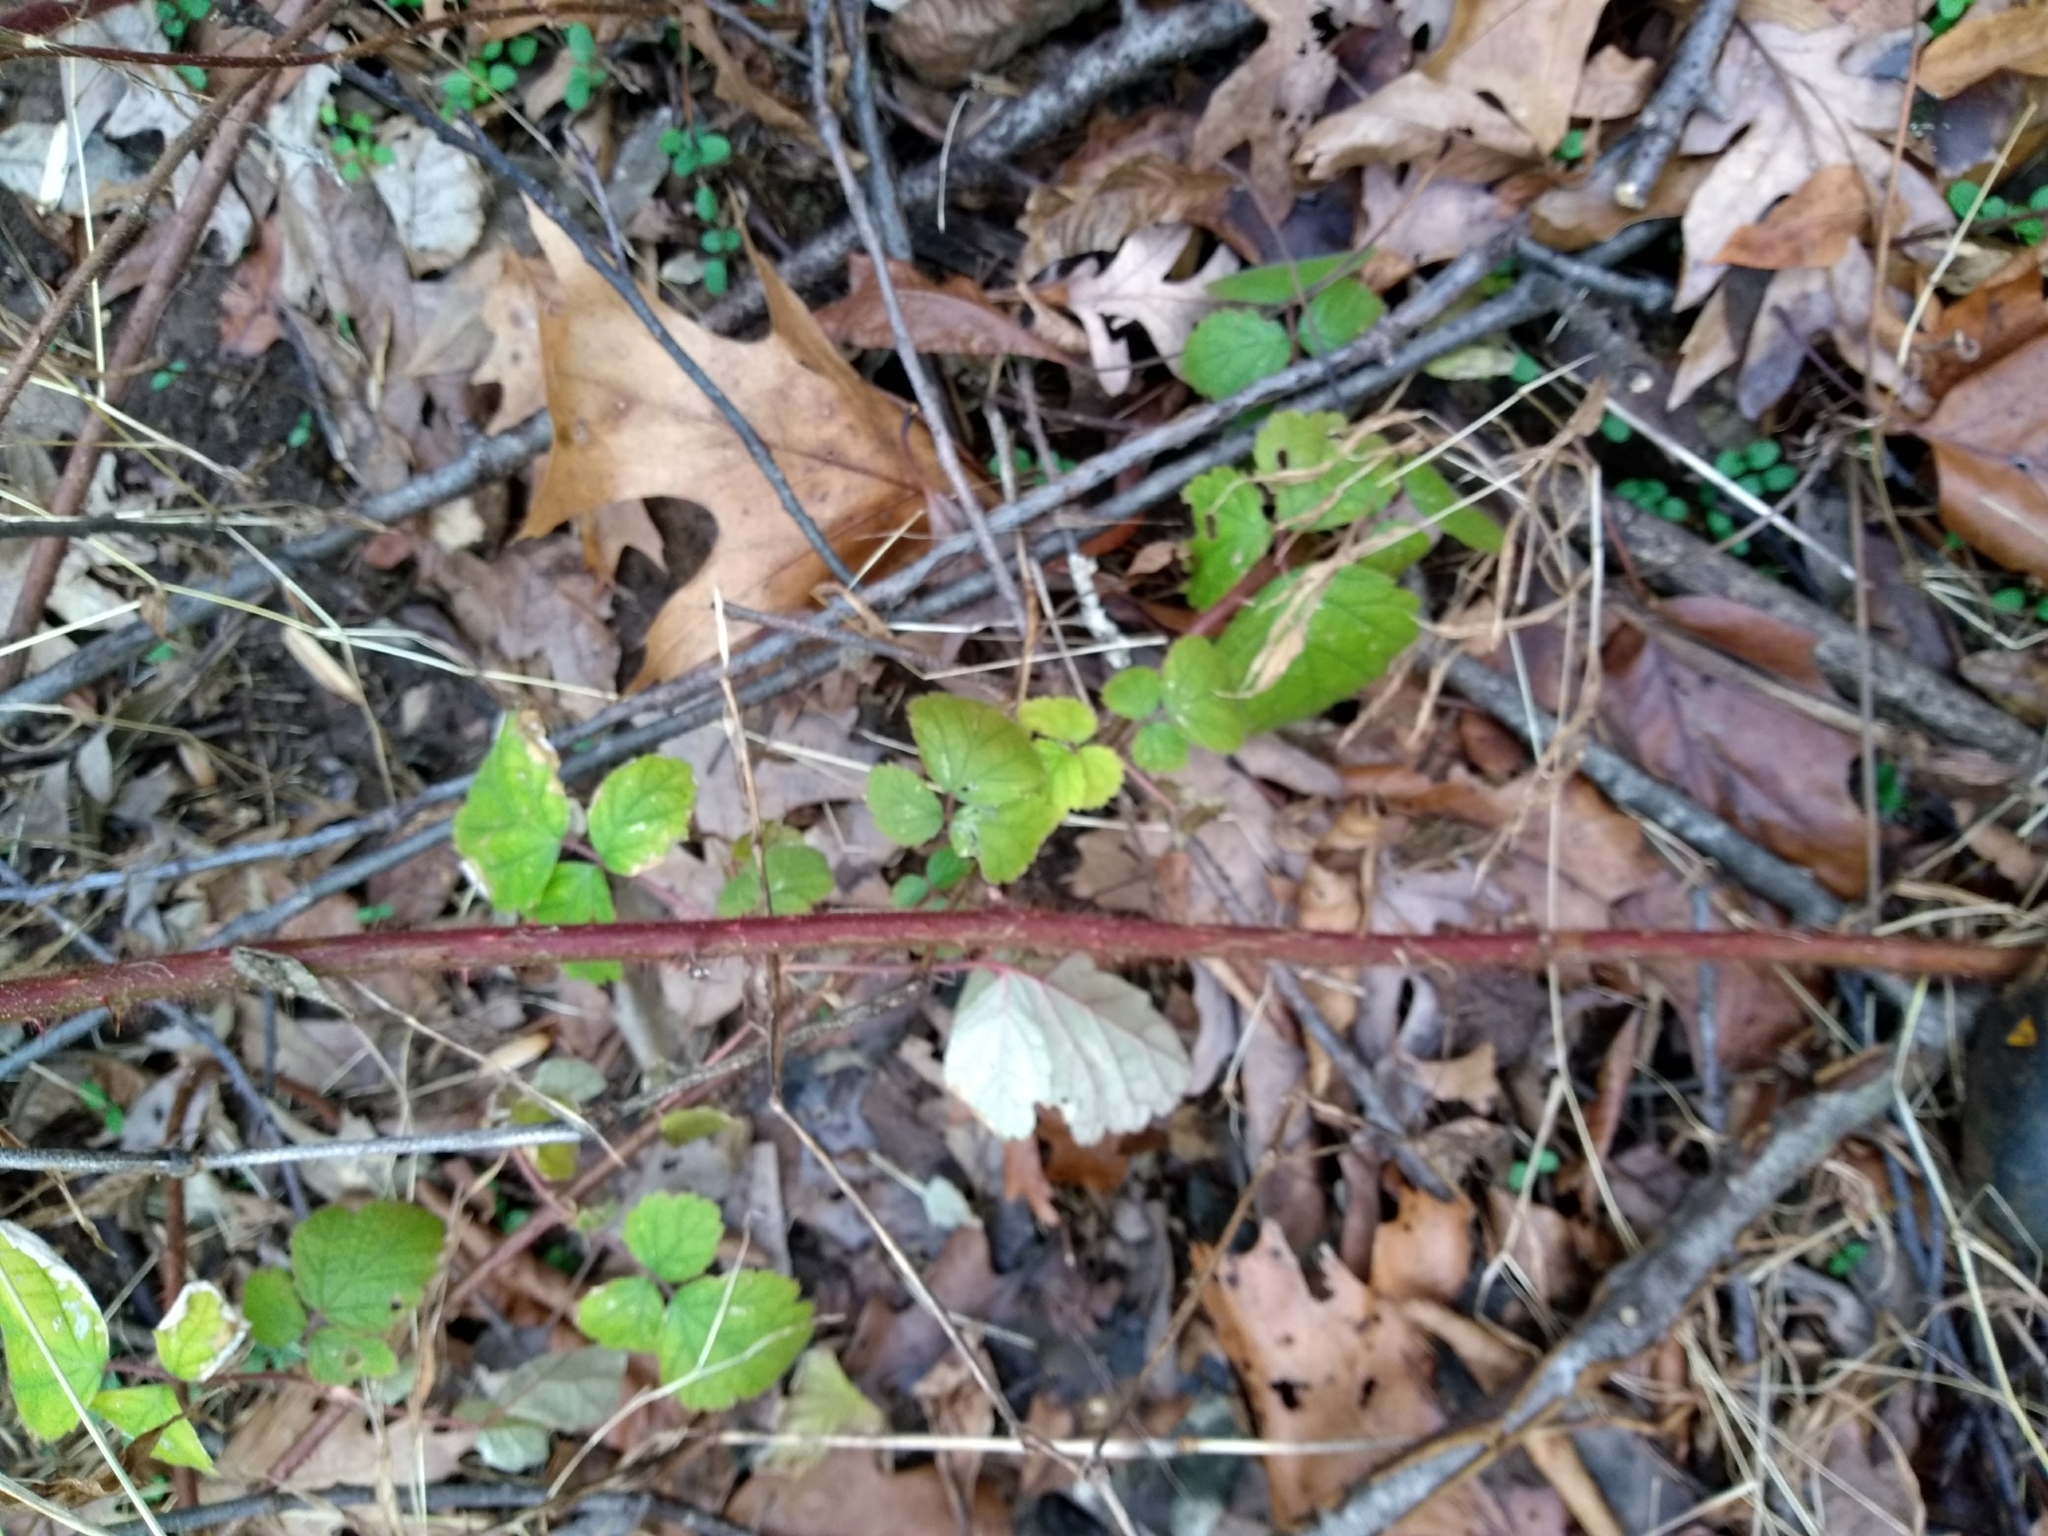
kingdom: Plantae
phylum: Tracheophyta
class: Magnoliopsida
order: Rosales
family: Rosaceae
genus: Rubus
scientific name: Rubus phoenicolasius
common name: Japanese wineberry
